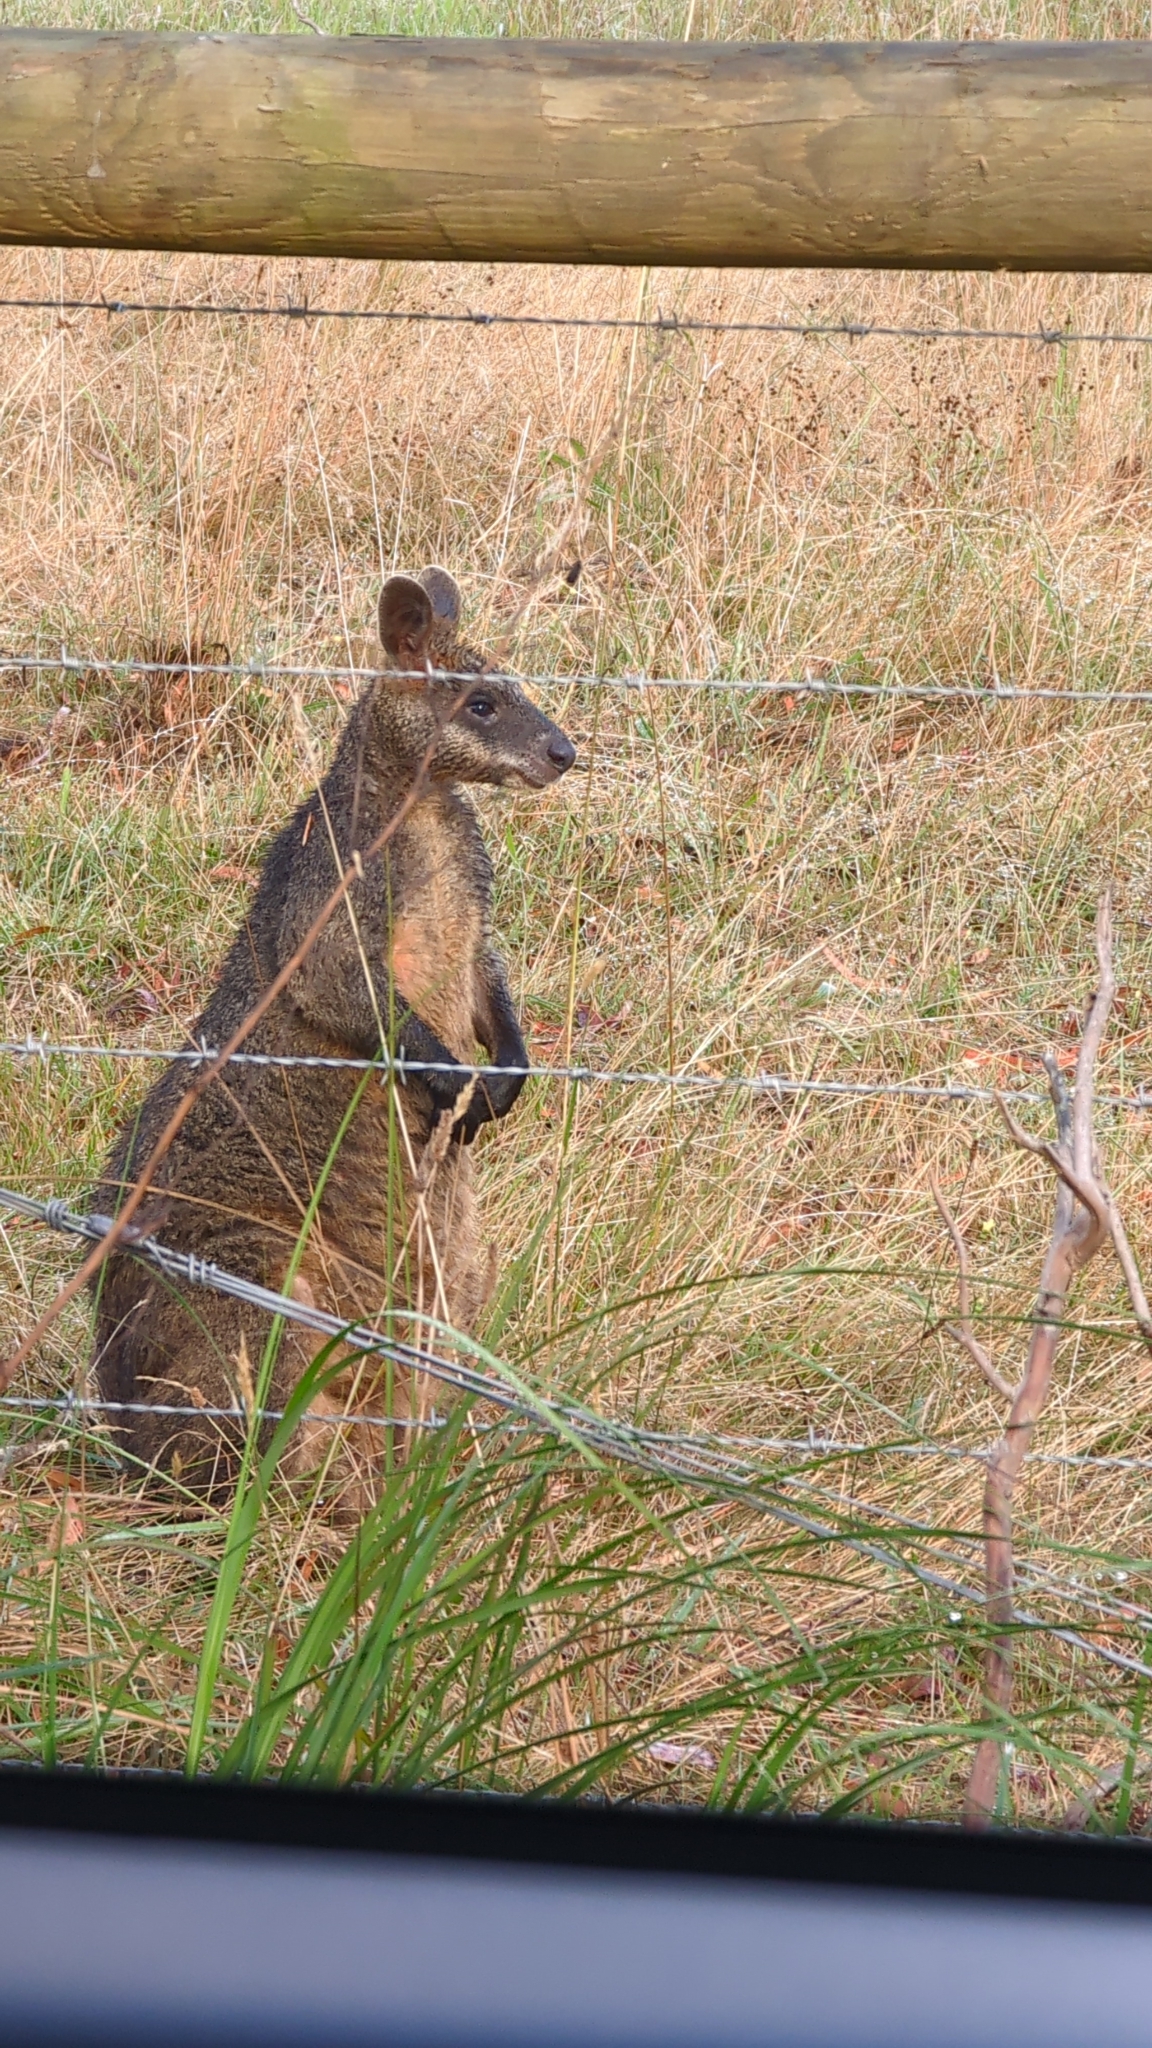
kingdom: Animalia
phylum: Chordata
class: Mammalia
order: Diprotodontia
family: Macropodidae
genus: Wallabia
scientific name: Wallabia bicolor
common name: Swamp wallaby
